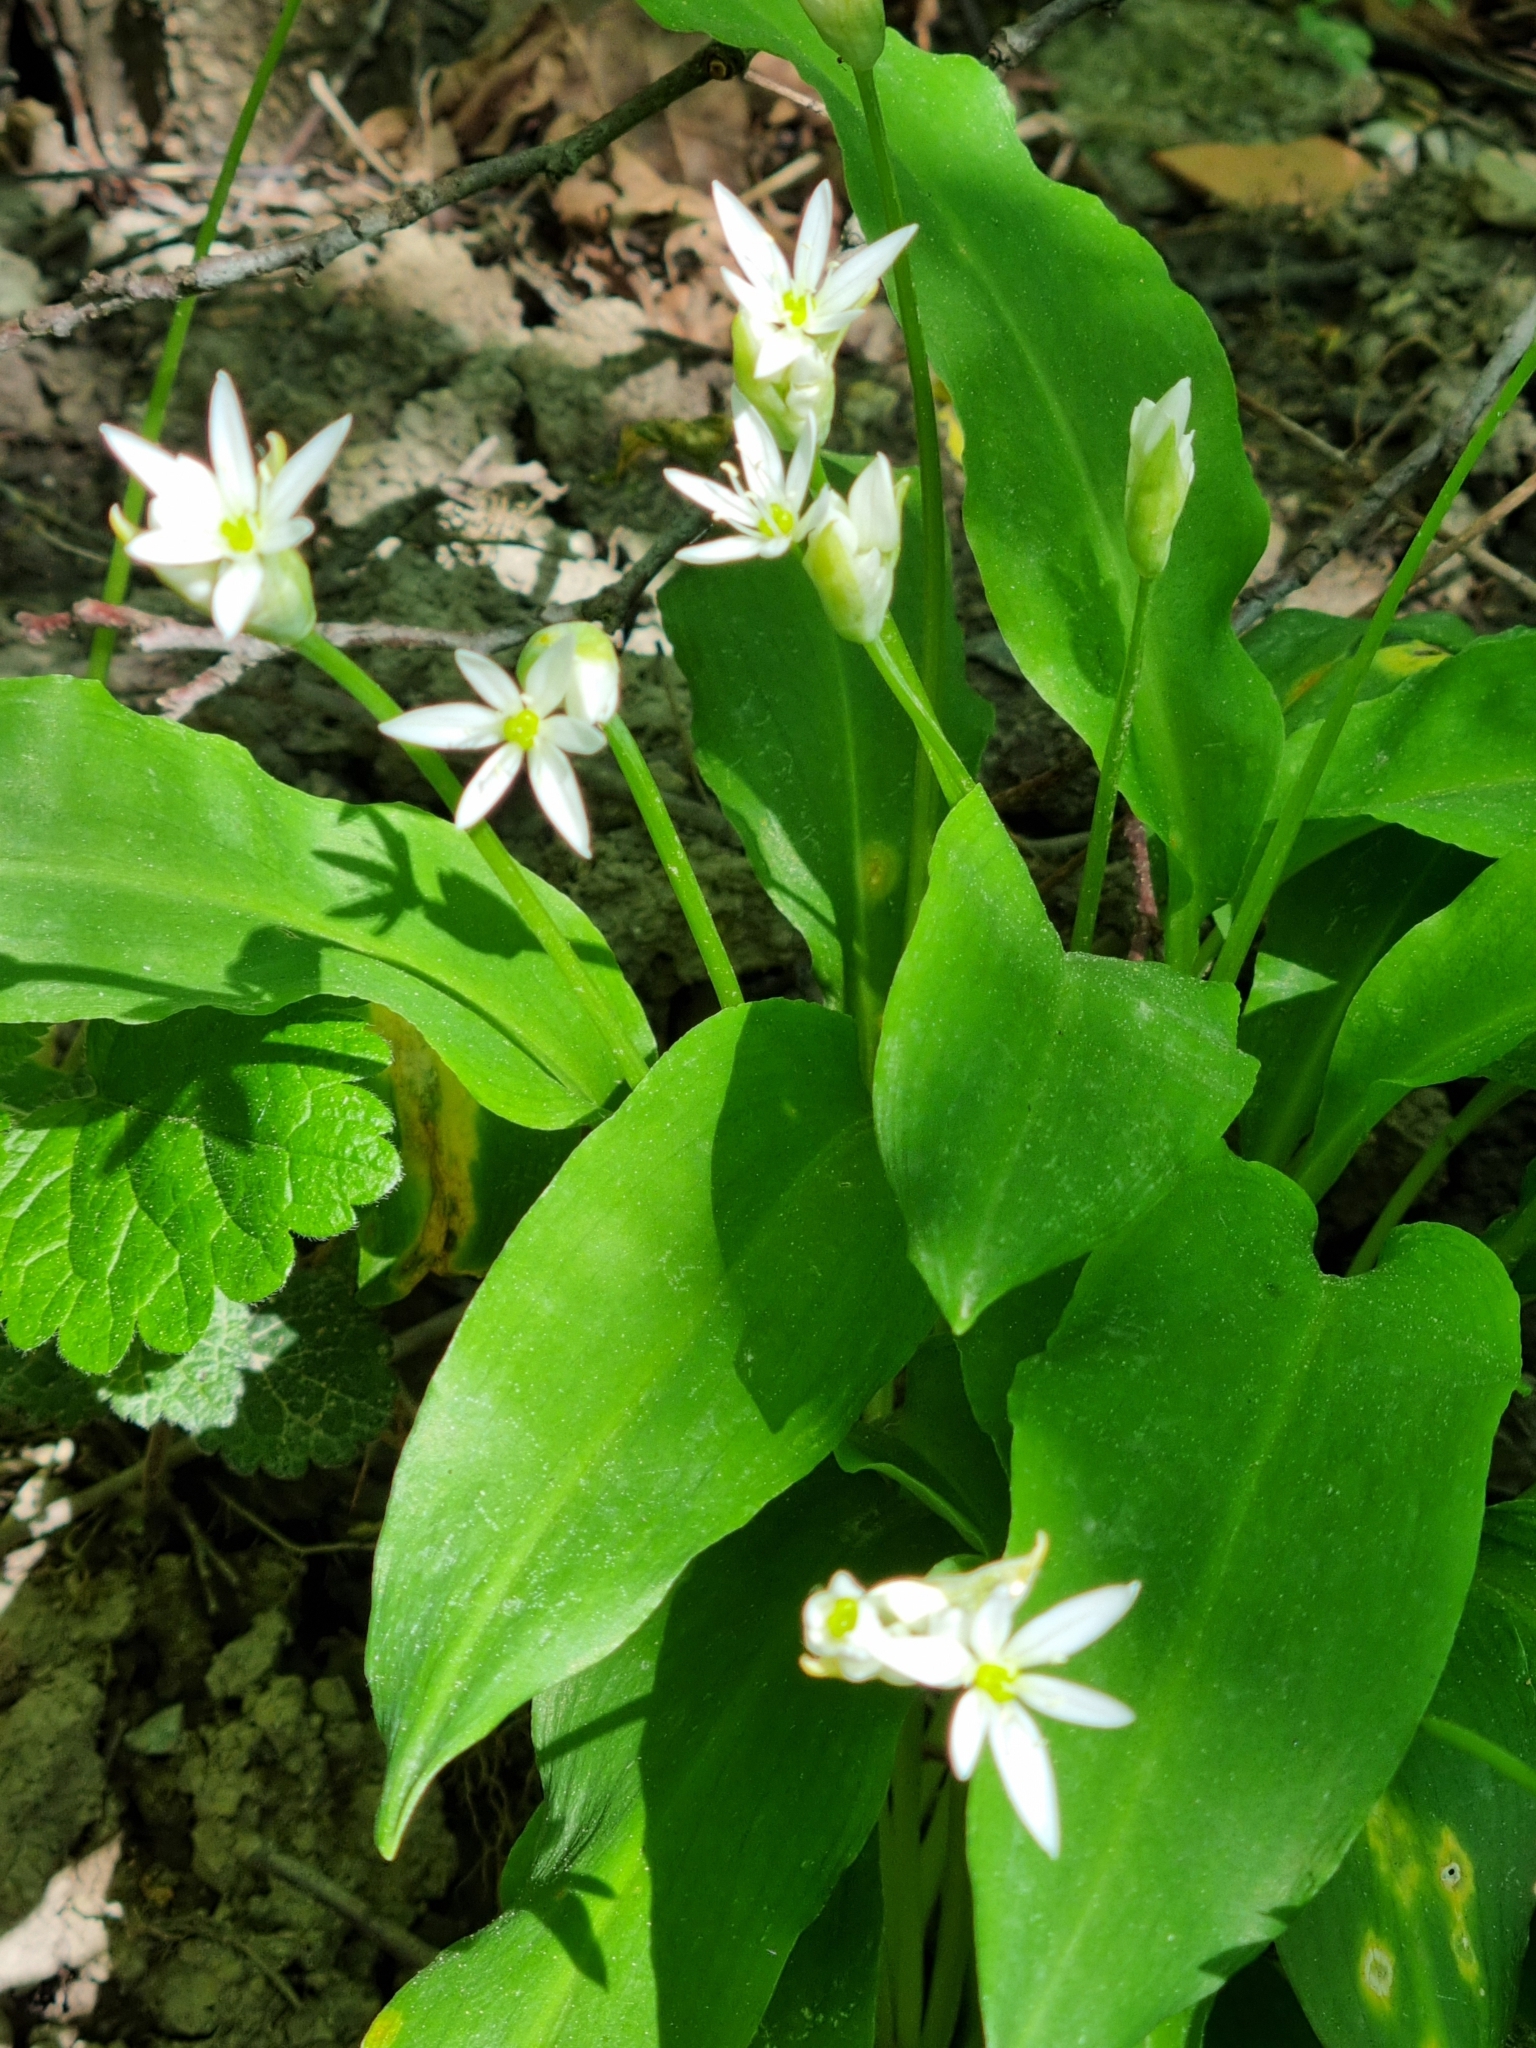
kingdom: Plantae
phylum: Tracheophyta
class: Liliopsida
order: Asparagales
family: Amaryllidaceae
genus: Allium
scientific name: Allium ursinum
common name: Ramsons
